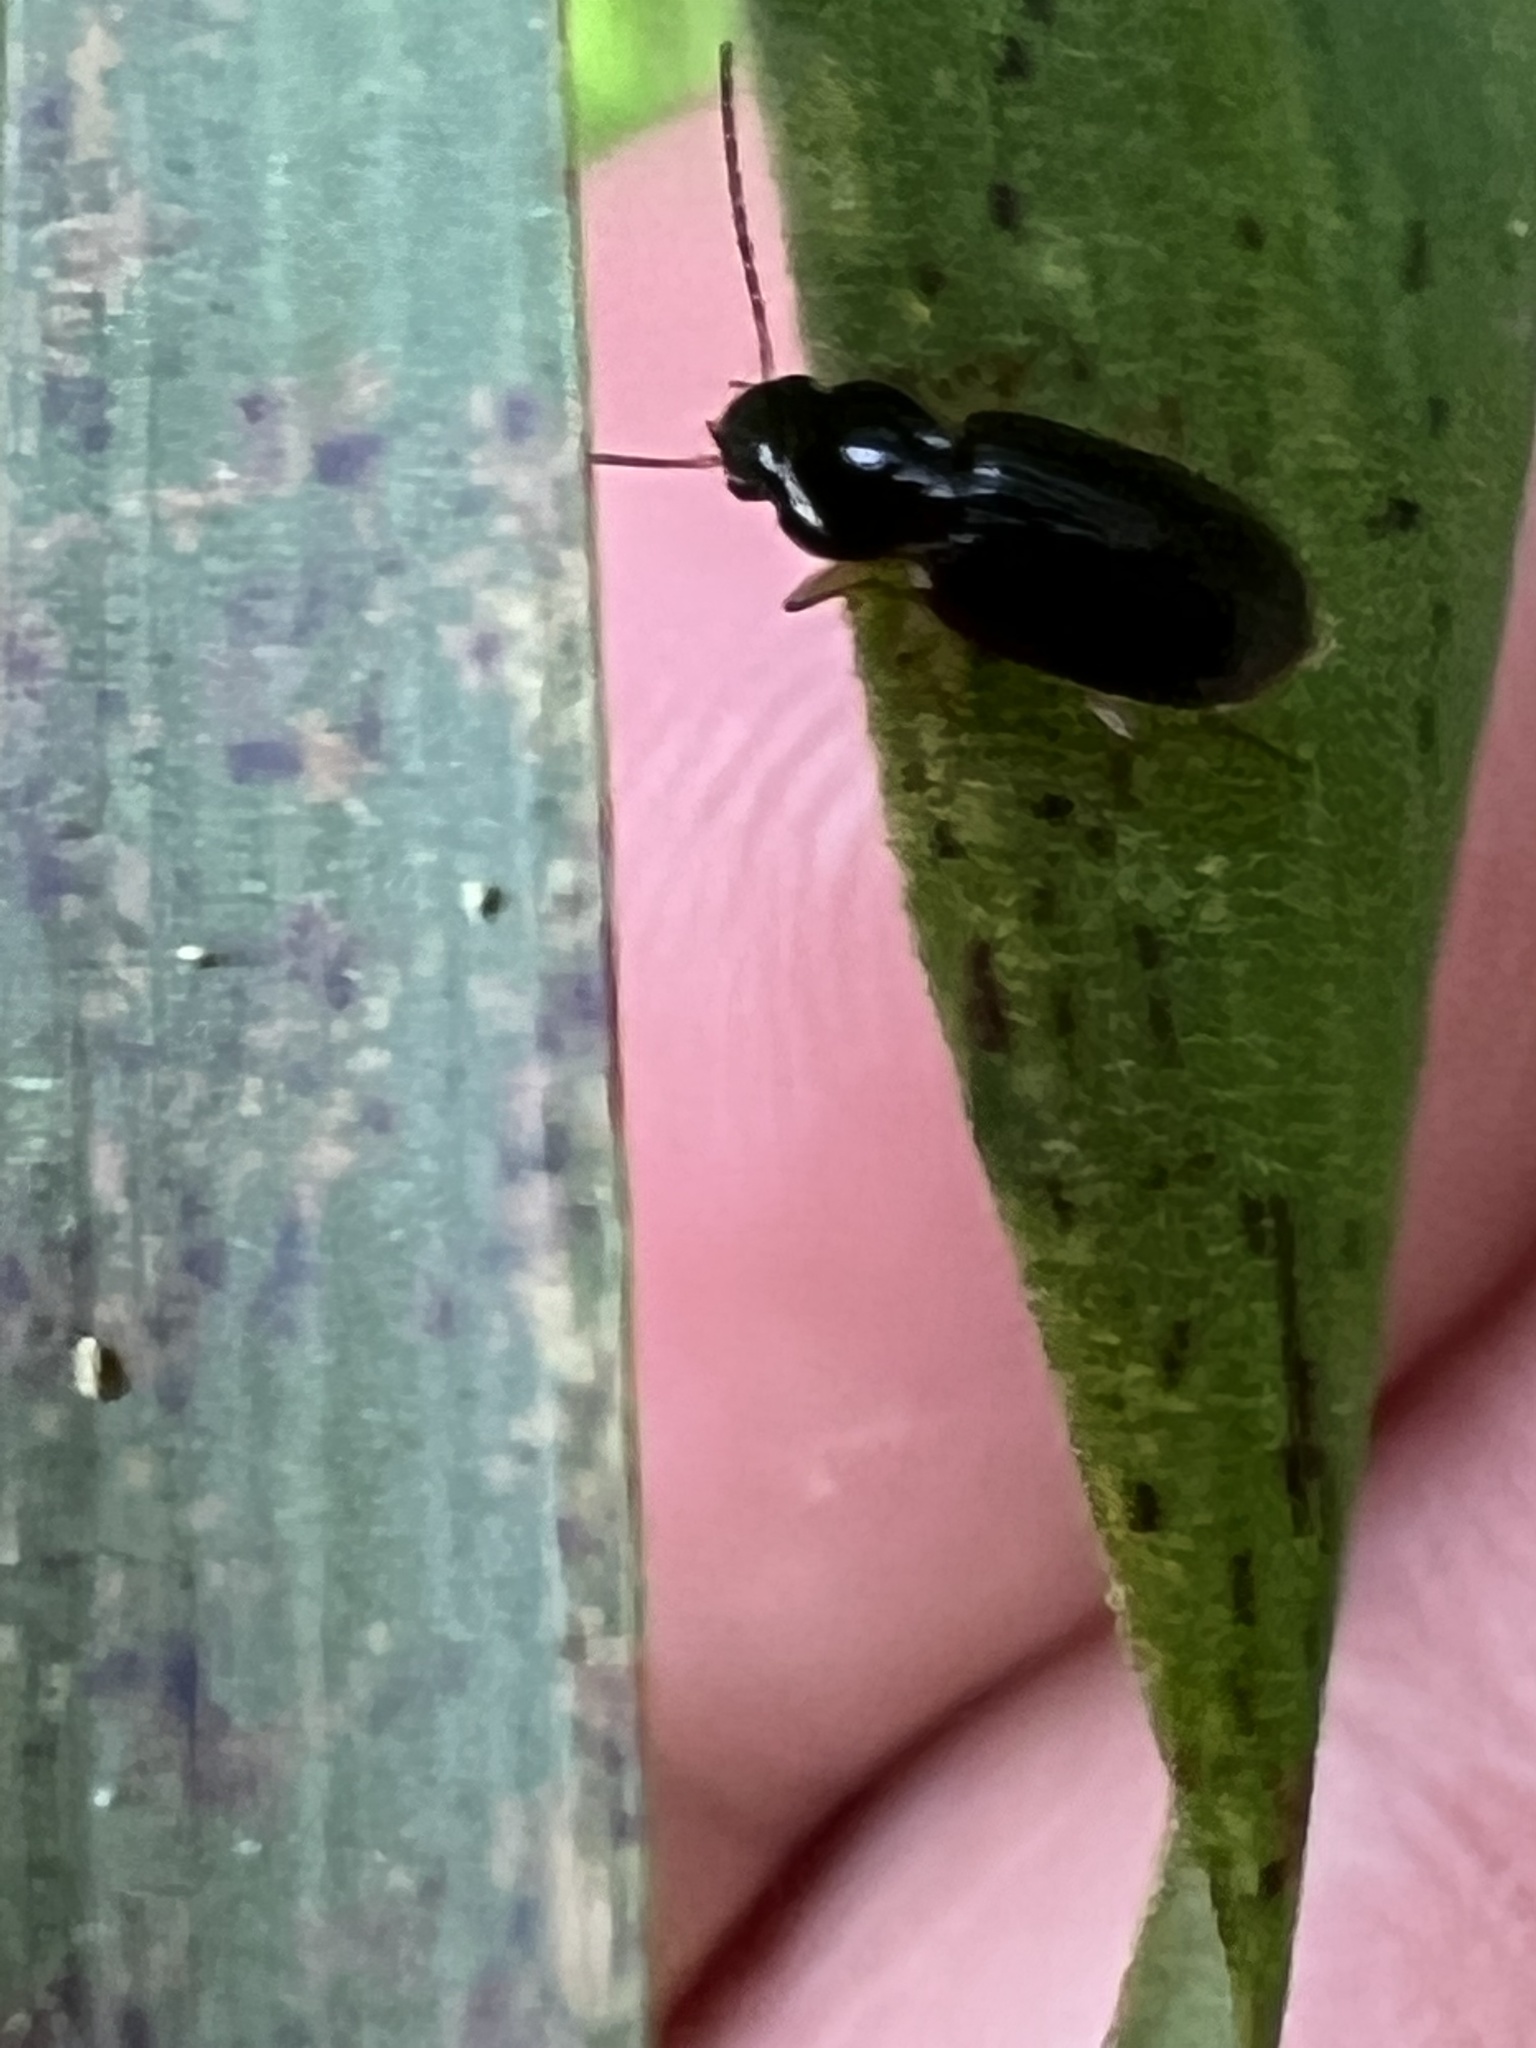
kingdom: Animalia
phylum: Arthropoda
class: Insecta
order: Coleoptera
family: Carabidae
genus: Stenolophus
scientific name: Stenolophus ochropezus
